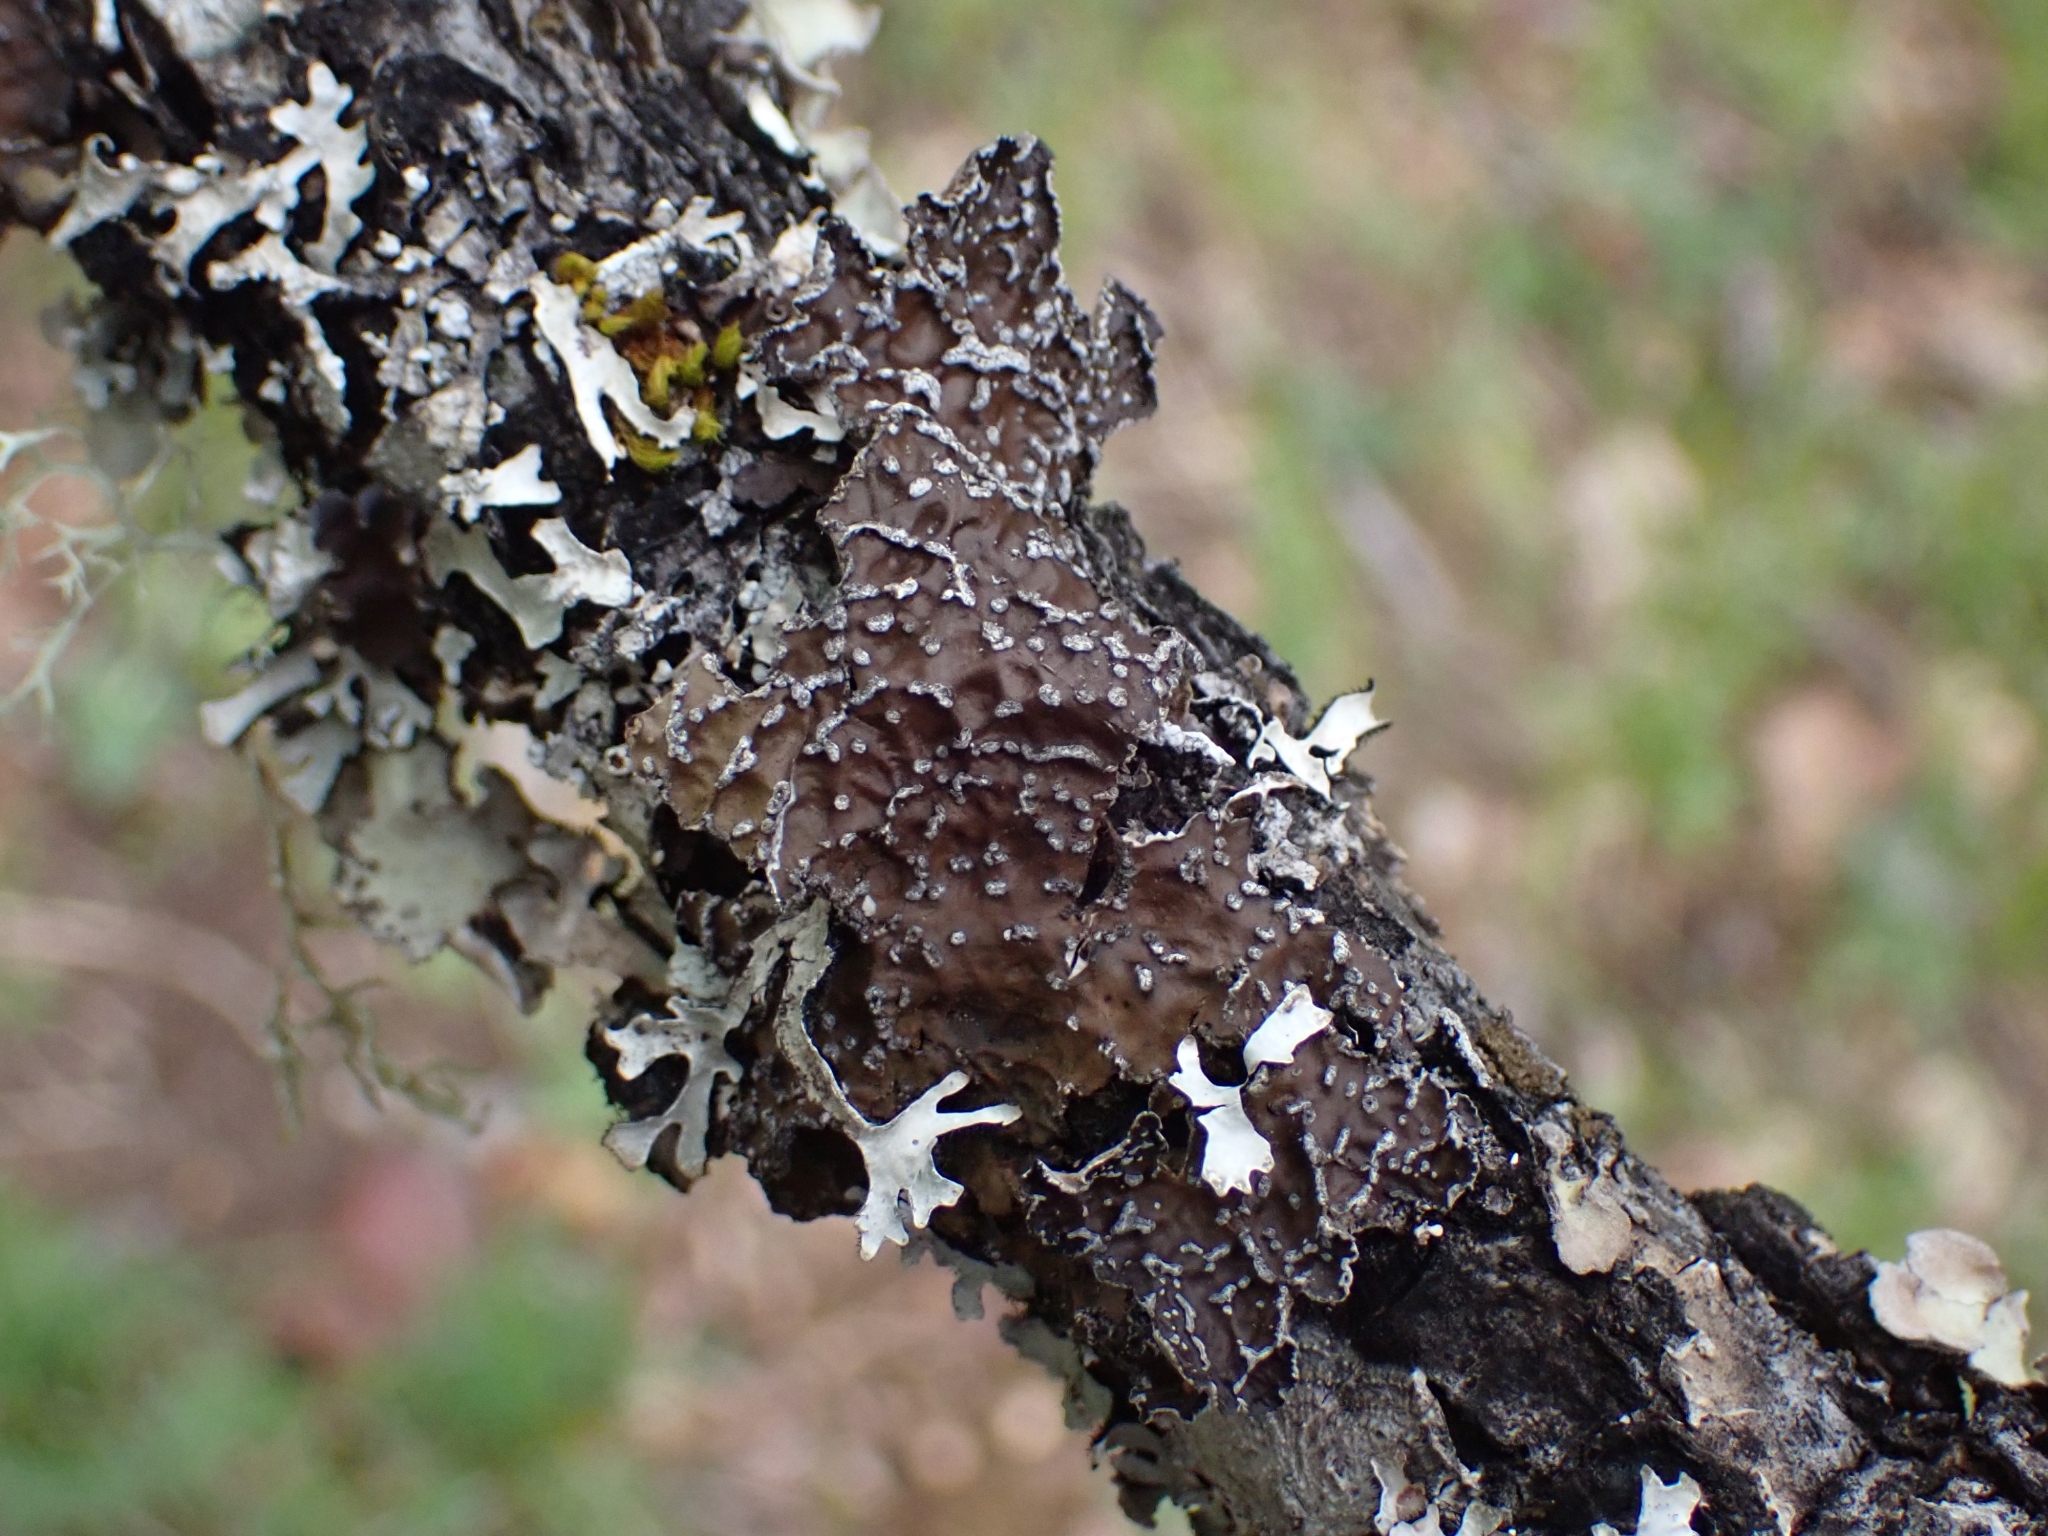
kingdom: Fungi
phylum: Ascomycota
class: Lecanoromycetes
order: Peltigerales
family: Lobariaceae
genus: Lobaria
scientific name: Lobaria anomala
